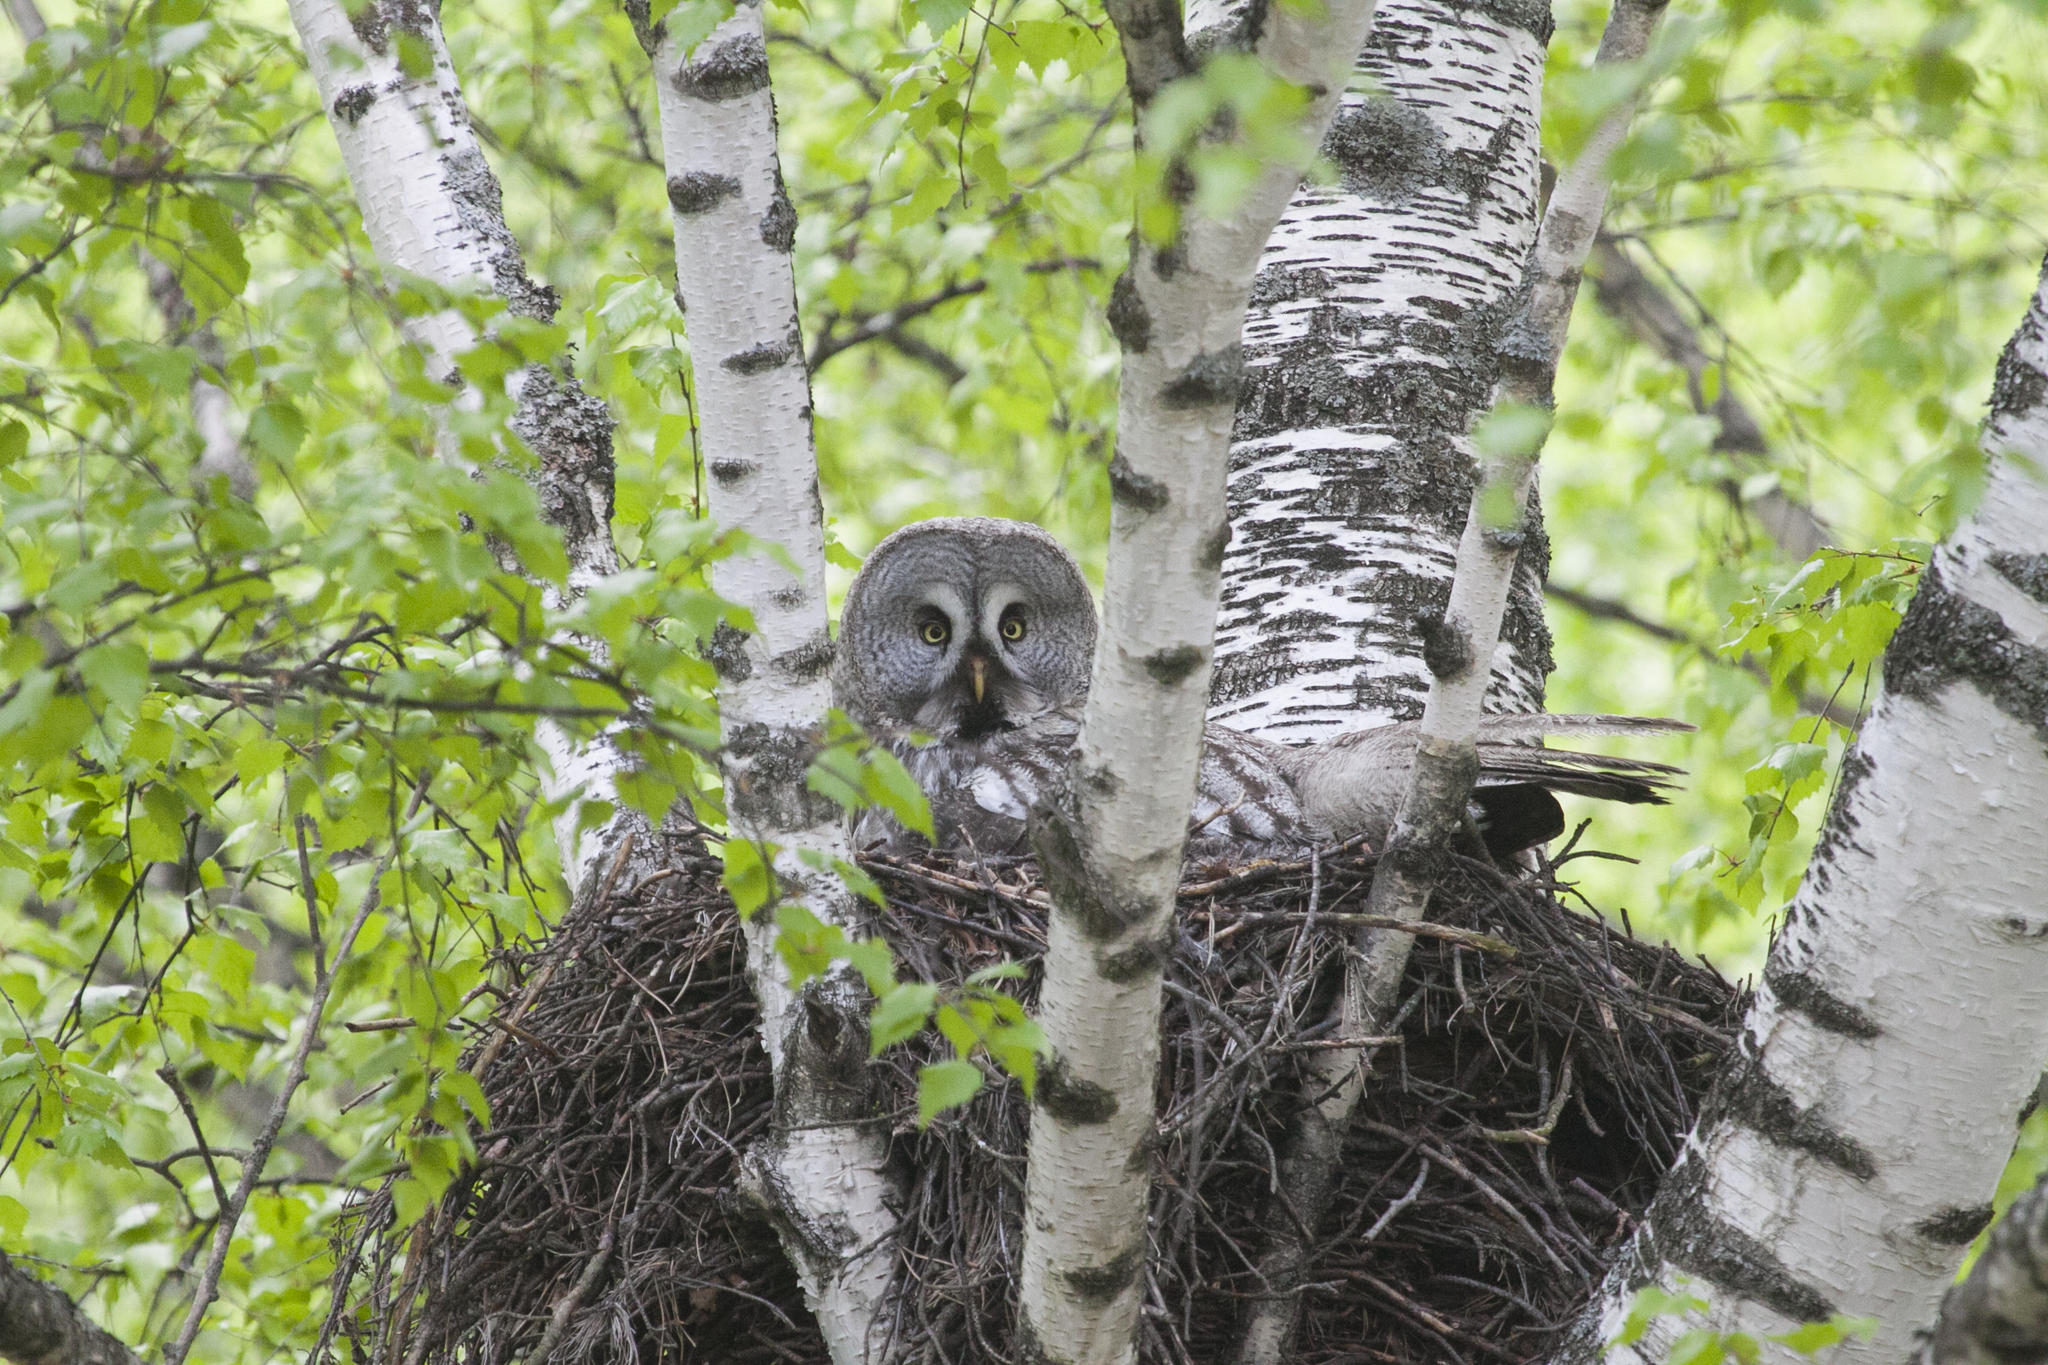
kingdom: Animalia
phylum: Chordata
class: Aves
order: Strigiformes
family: Strigidae
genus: Strix
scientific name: Strix nebulosa
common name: Great grey owl
